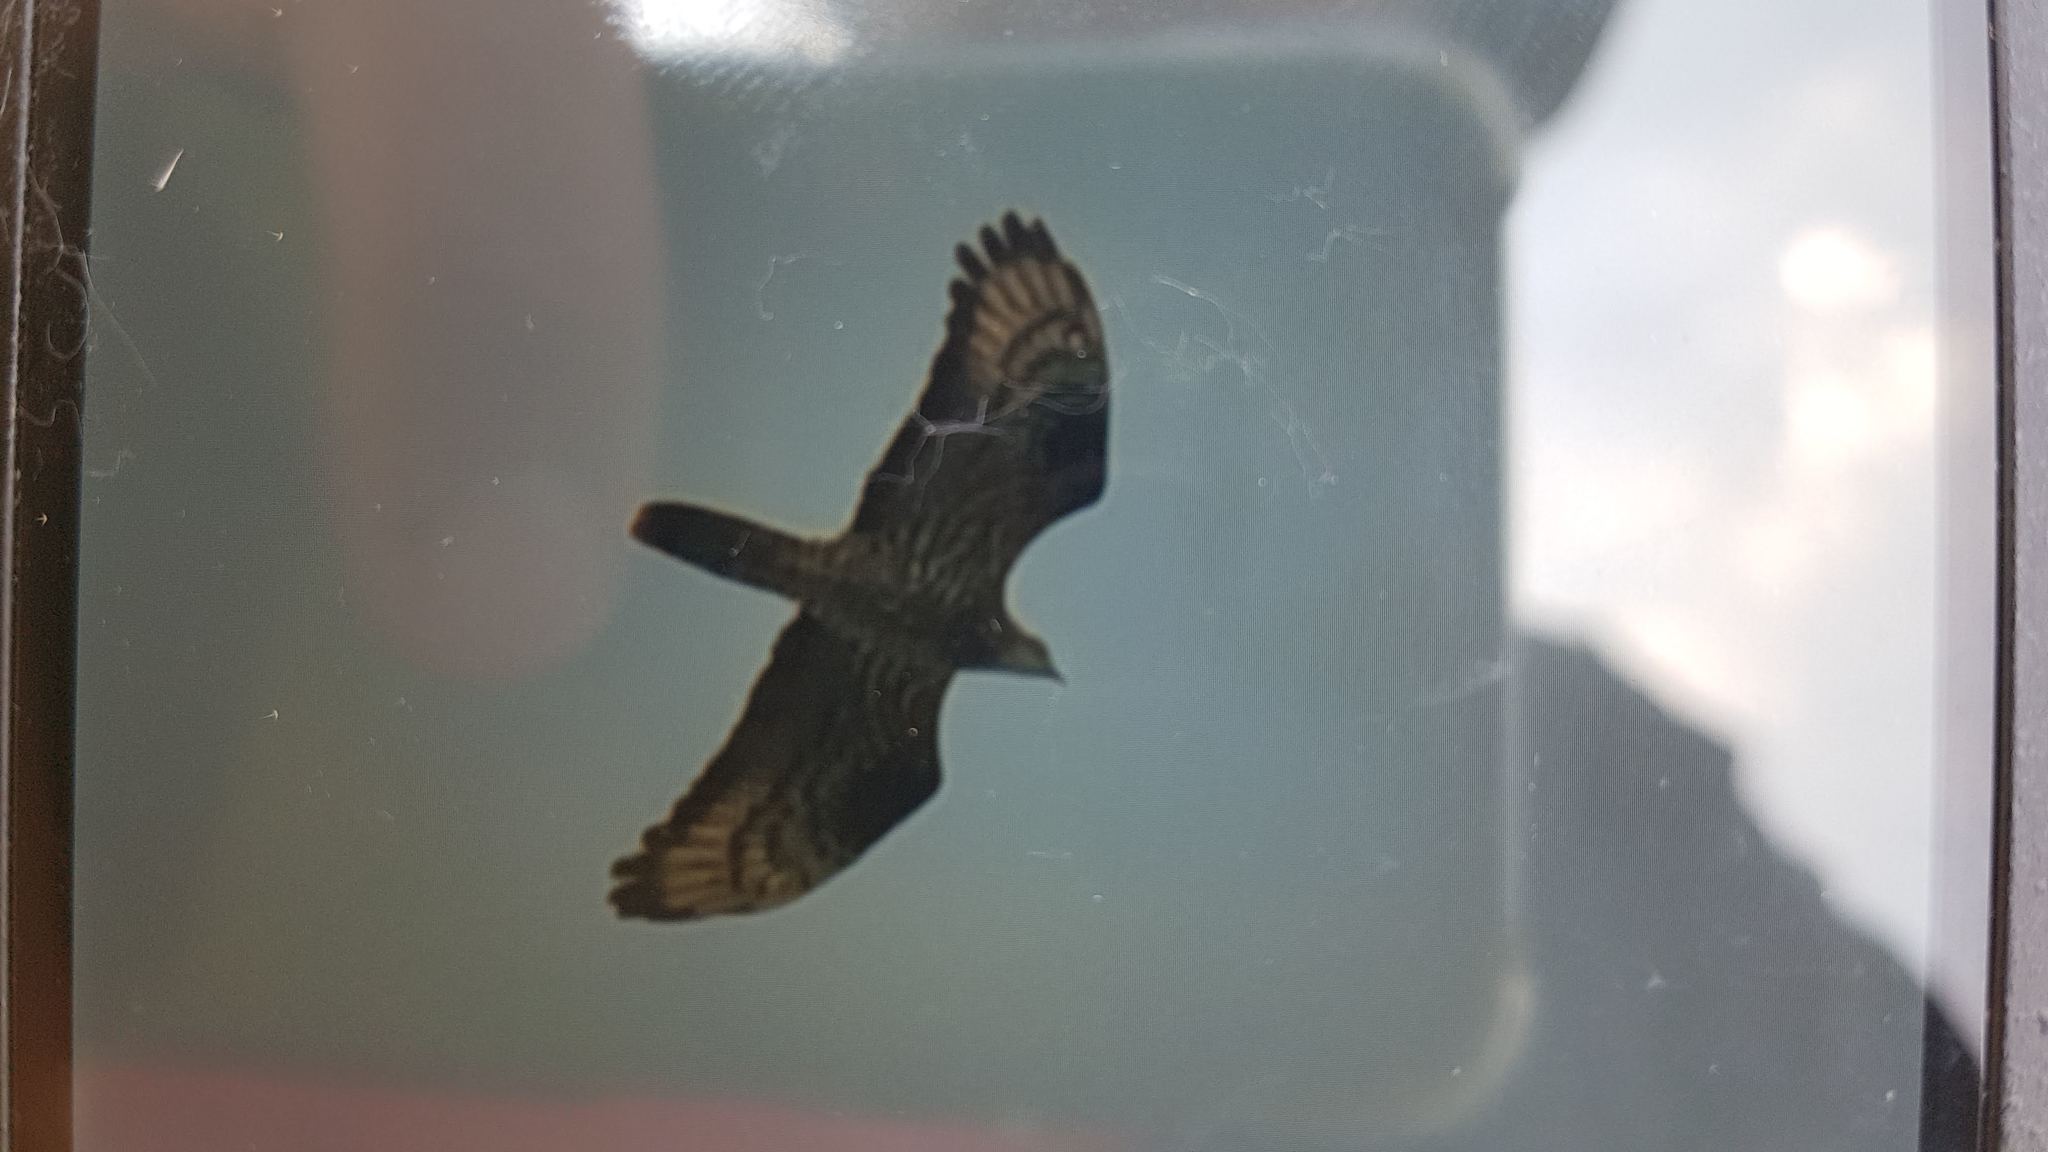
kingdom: Animalia
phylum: Chordata
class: Aves
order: Accipitriformes
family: Accipitridae
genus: Pernis
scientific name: Pernis apivorus
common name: European honey buzzard
